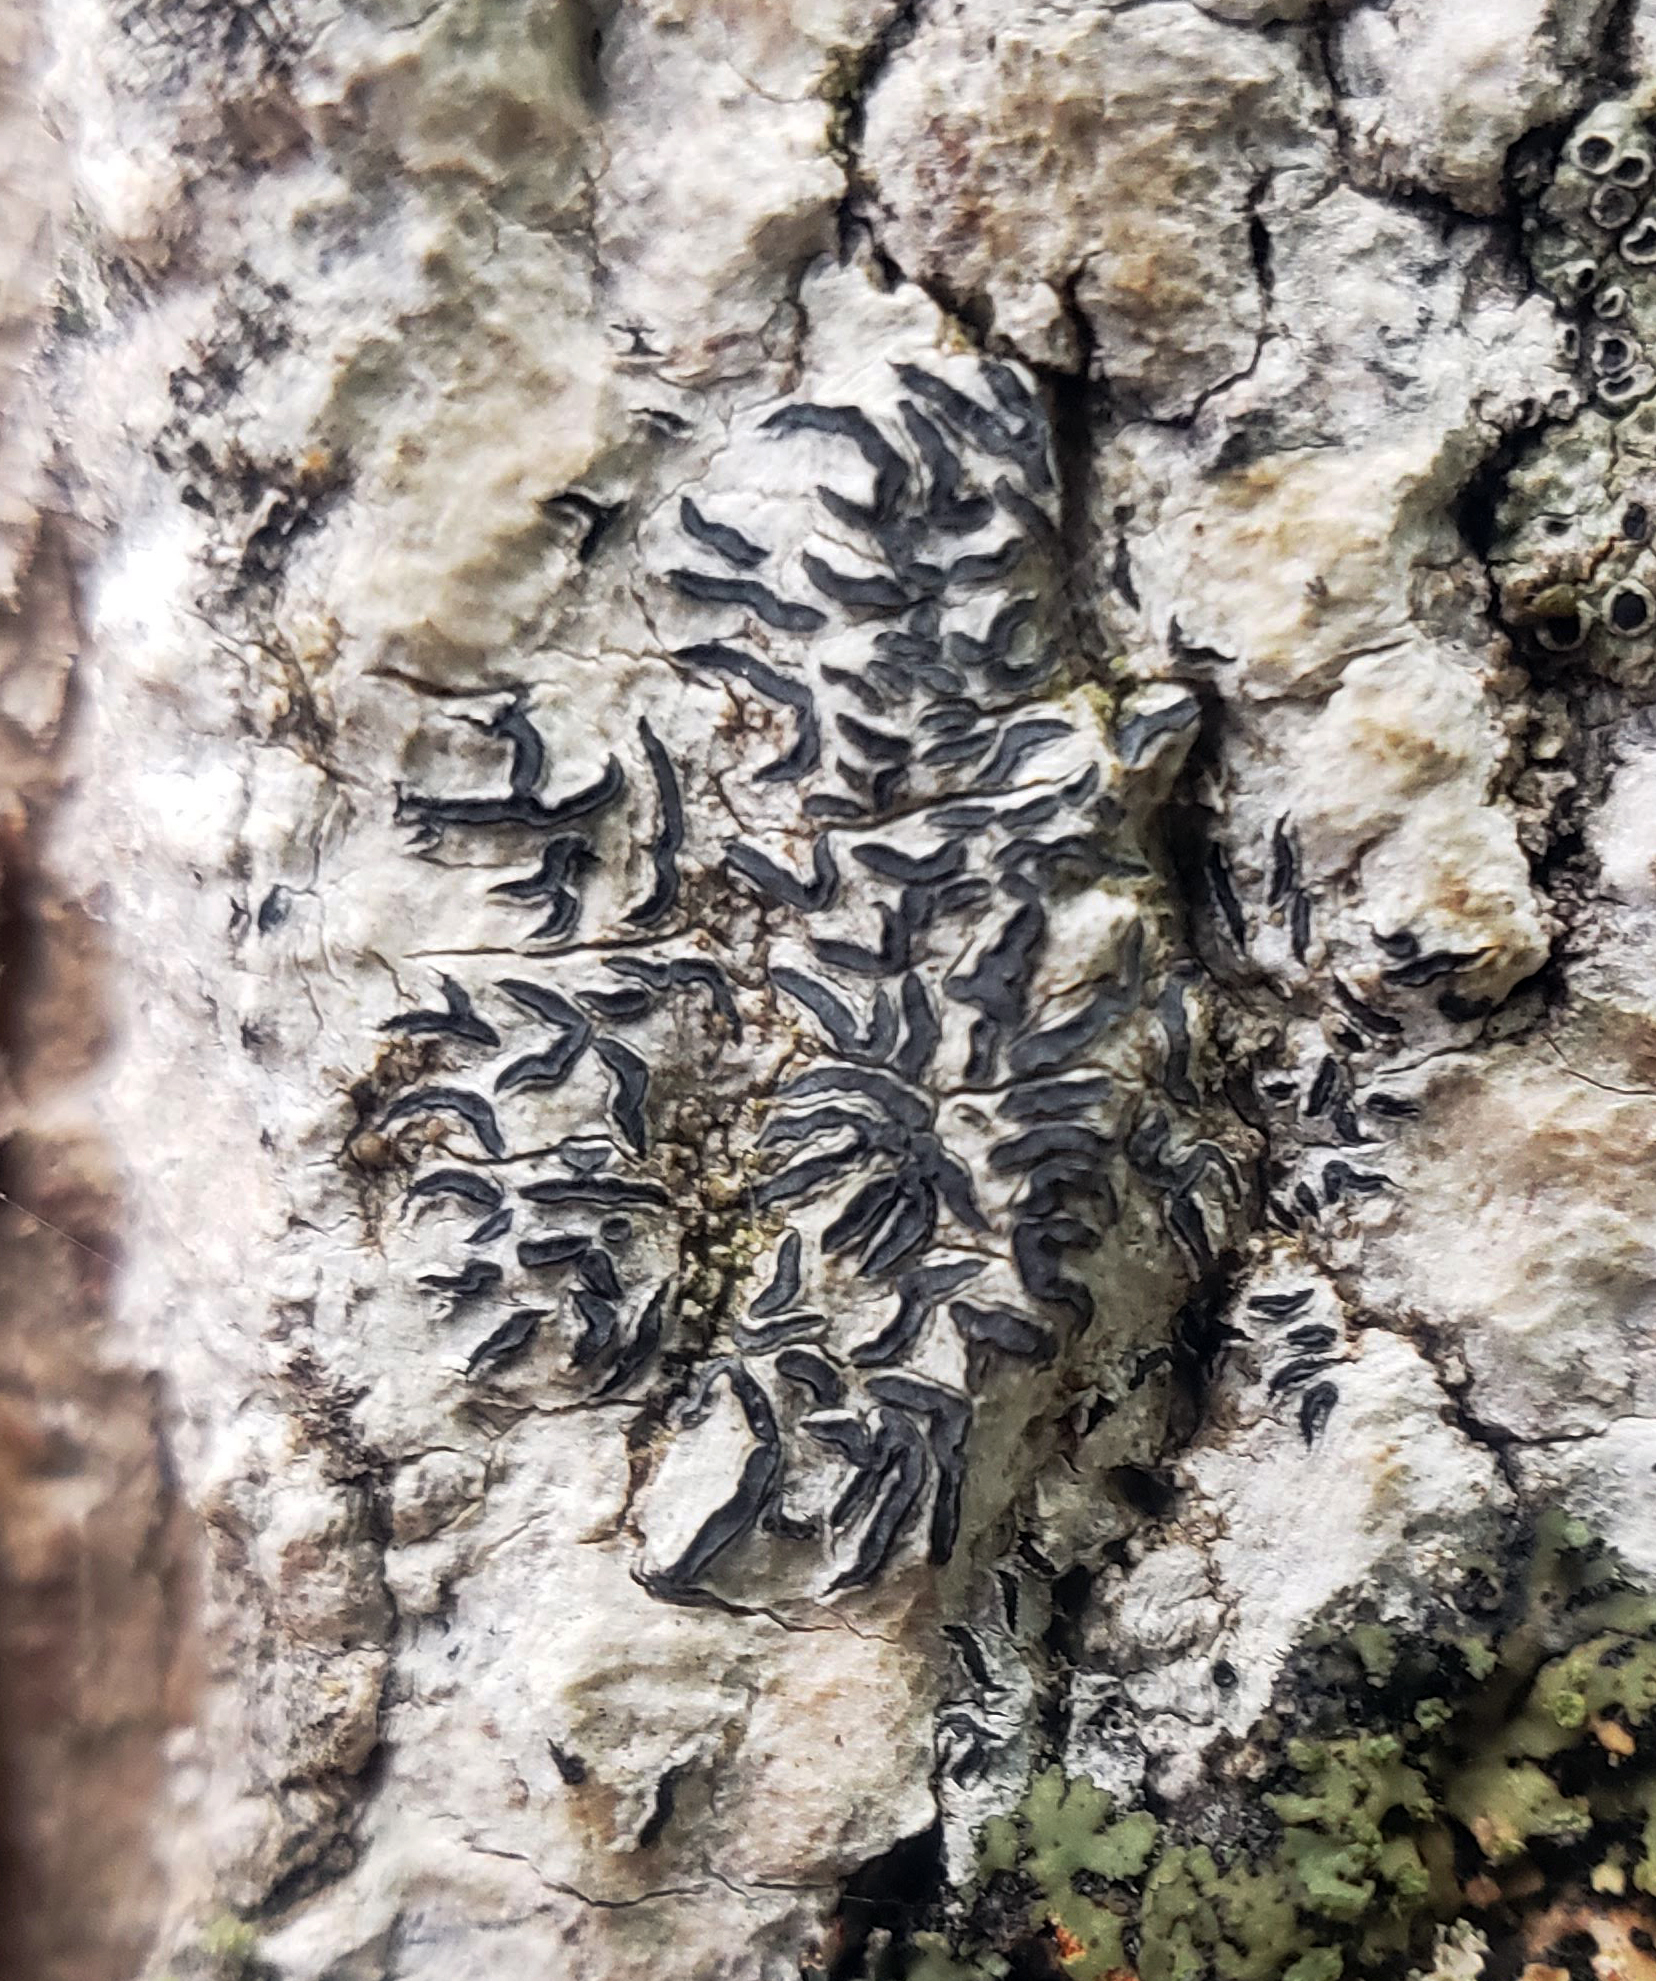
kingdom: Fungi
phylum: Ascomycota
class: Lecanoromycetes
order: Ostropales
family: Graphidaceae
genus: Graphis
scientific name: Graphis scripta
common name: Script lichen
